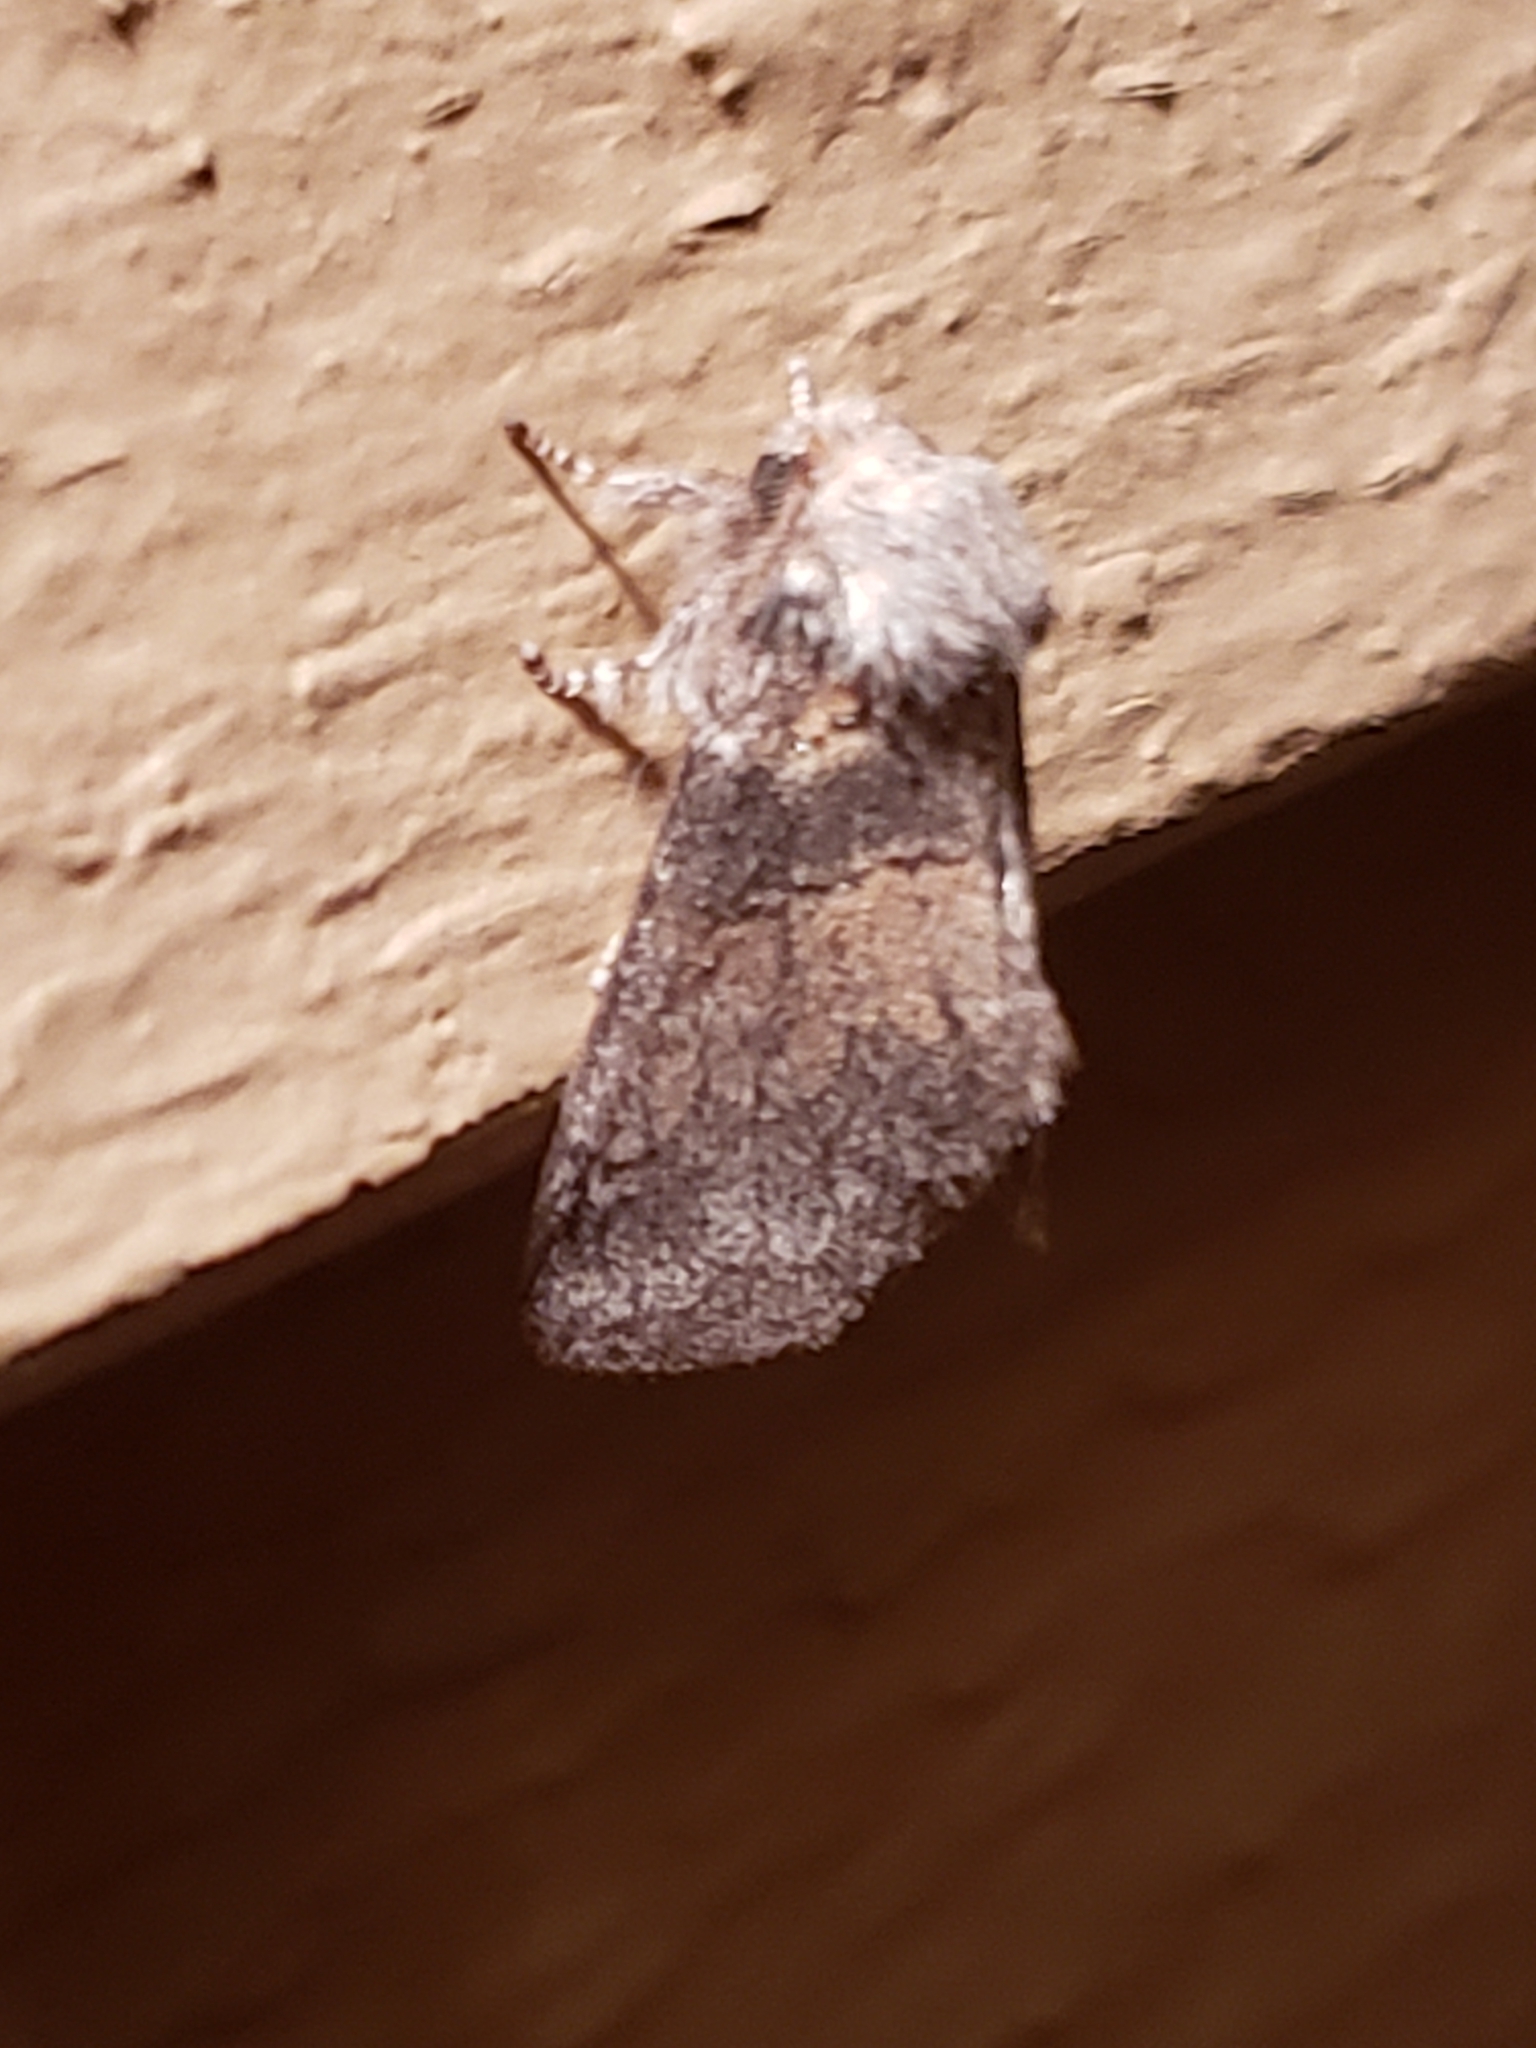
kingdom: Animalia
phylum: Arthropoda
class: Insecta
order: Lepidoptera
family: Notodontidae
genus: Gluphisia
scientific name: Gluphisia septentrionis
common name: Common gluphisia
